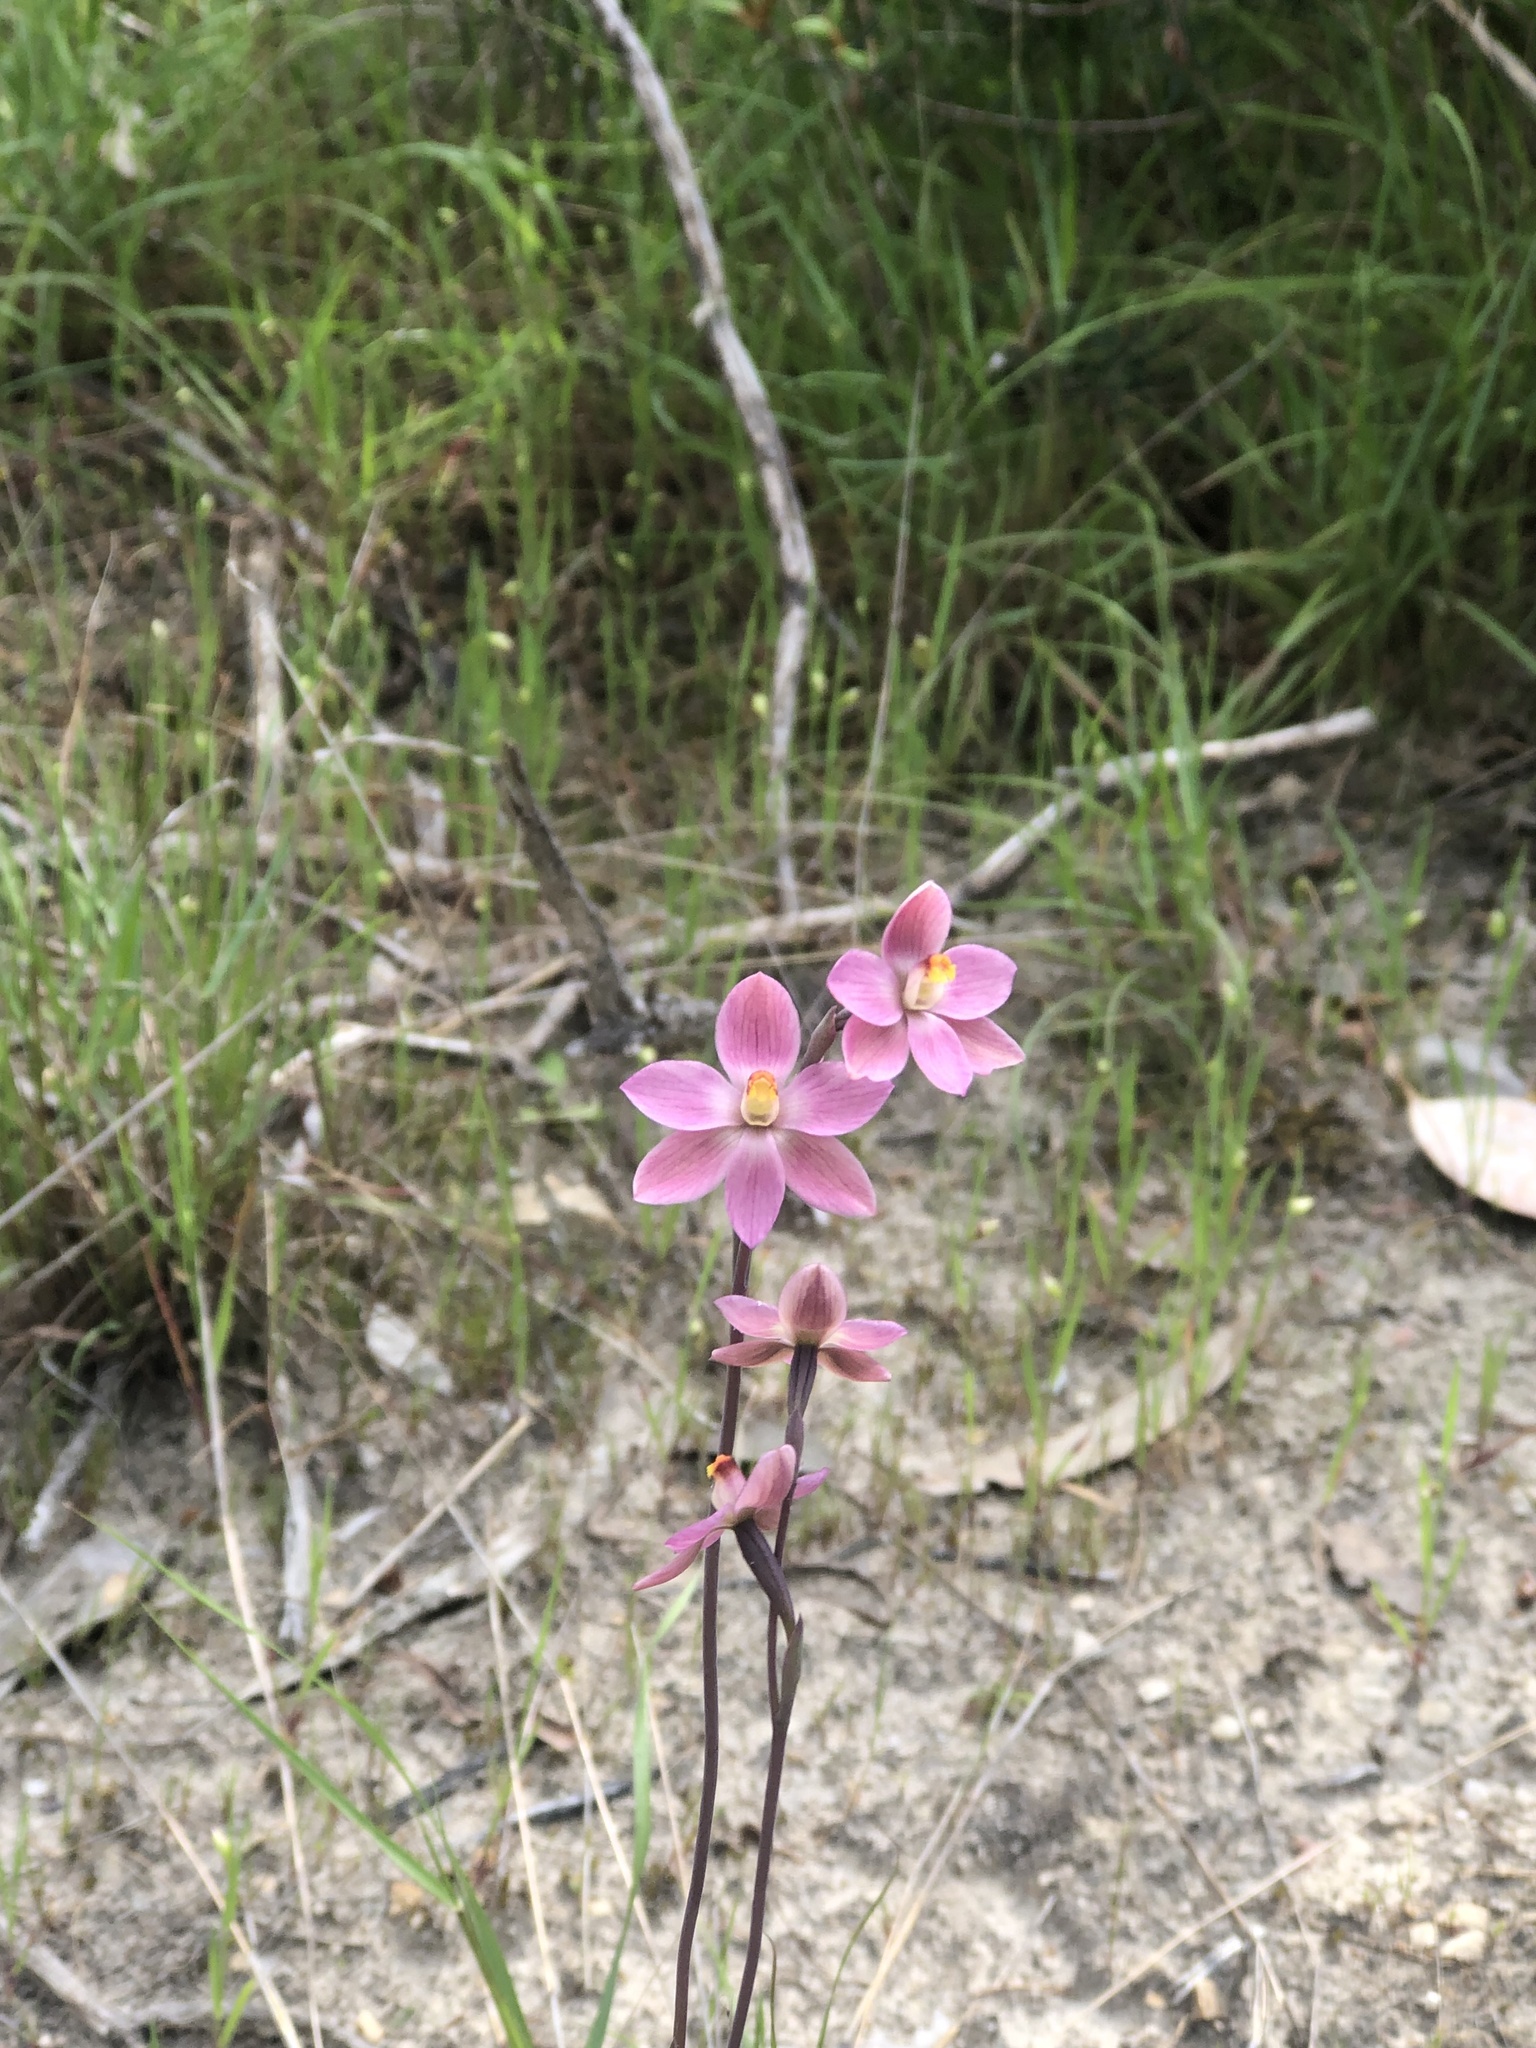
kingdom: Plantae
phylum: Tracheophyta
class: Liliopsida
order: Asparagales
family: Orchidaceae
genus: Thelymitra
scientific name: Thelymitra rubra
